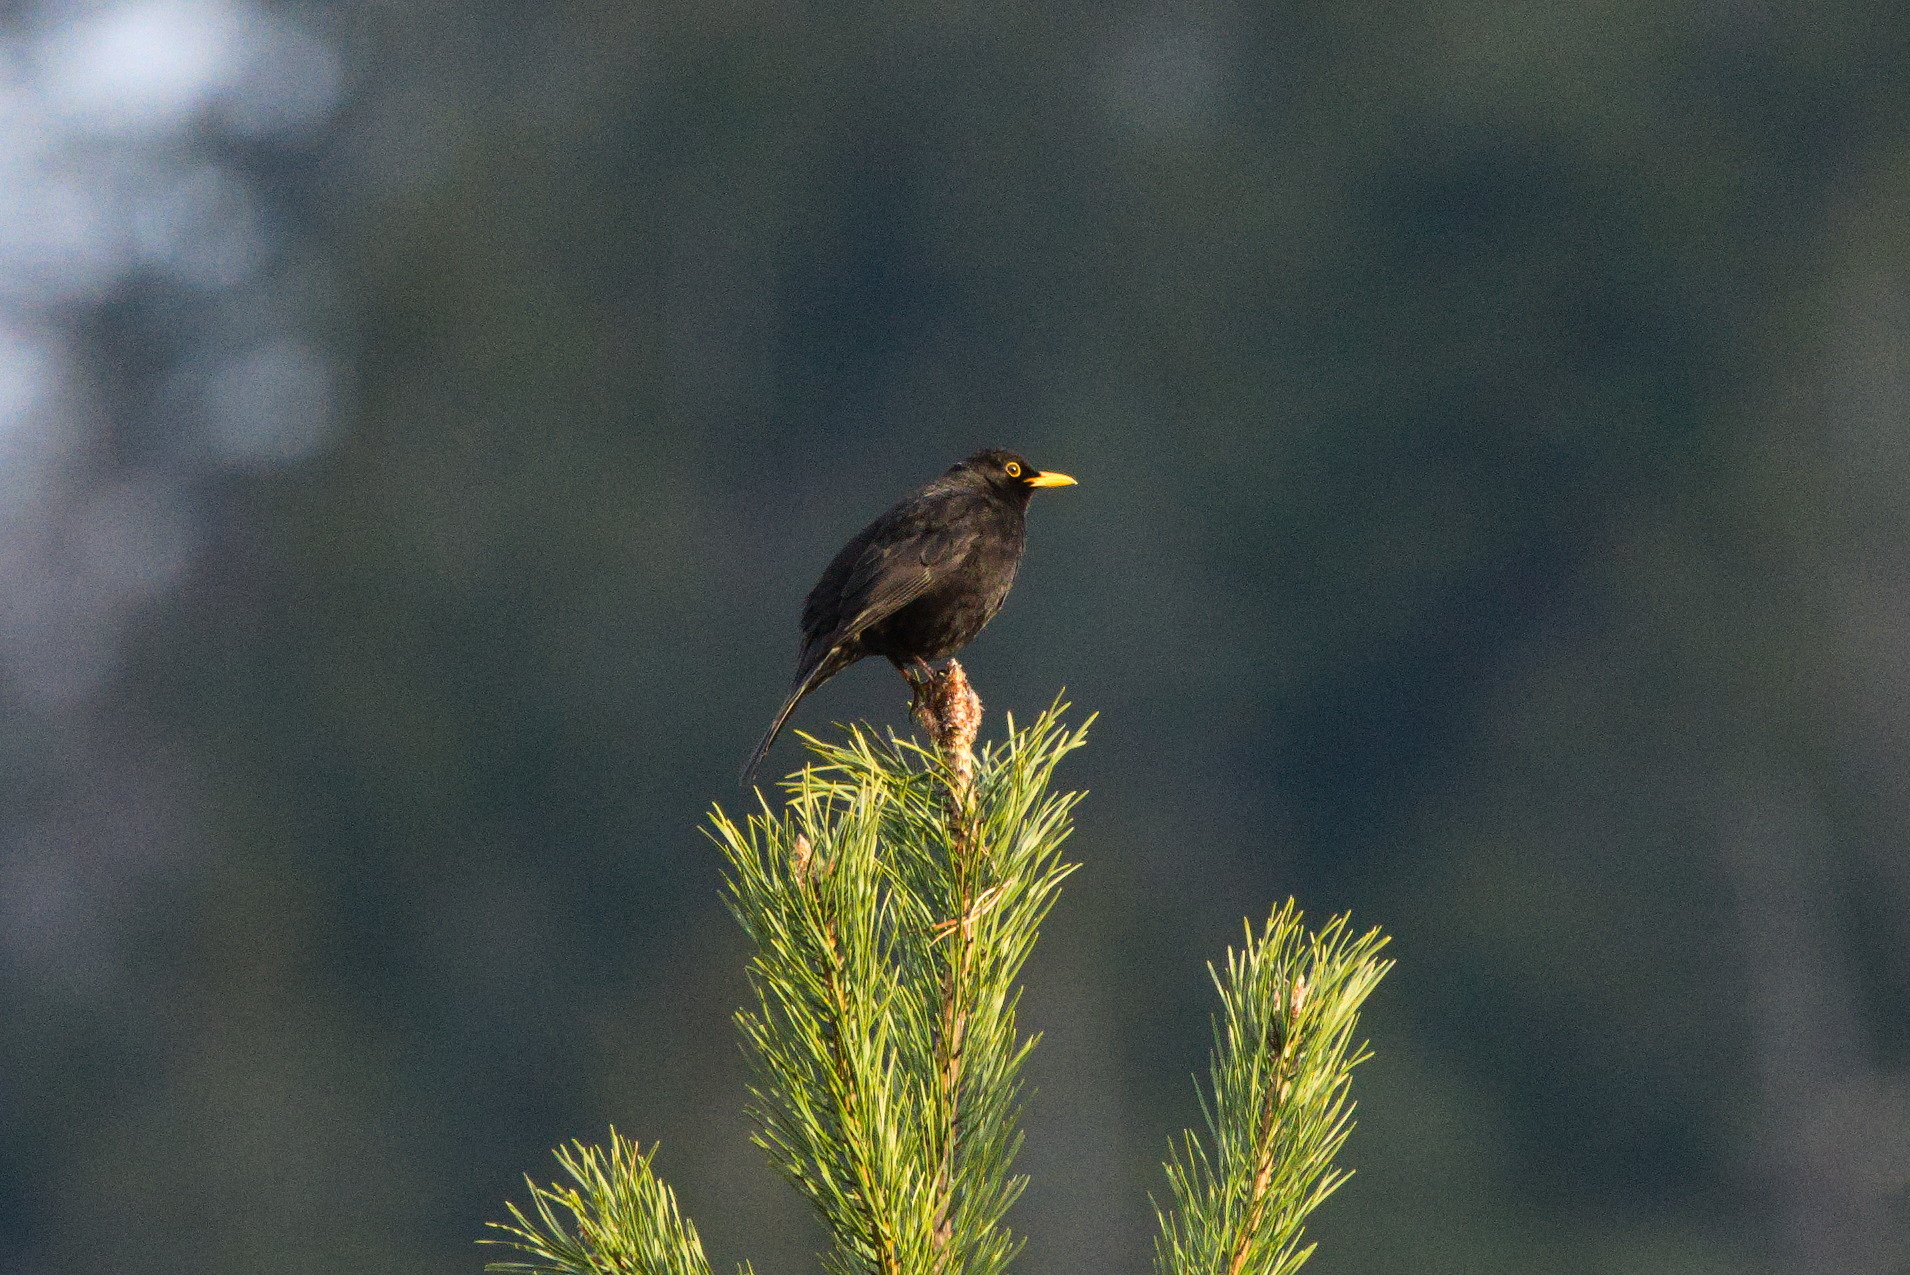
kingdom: Animalia
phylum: Chordata
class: Aves
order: Passeriformes
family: Turdidae
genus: Turdus
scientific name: Turdus merula
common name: Common blackbird
